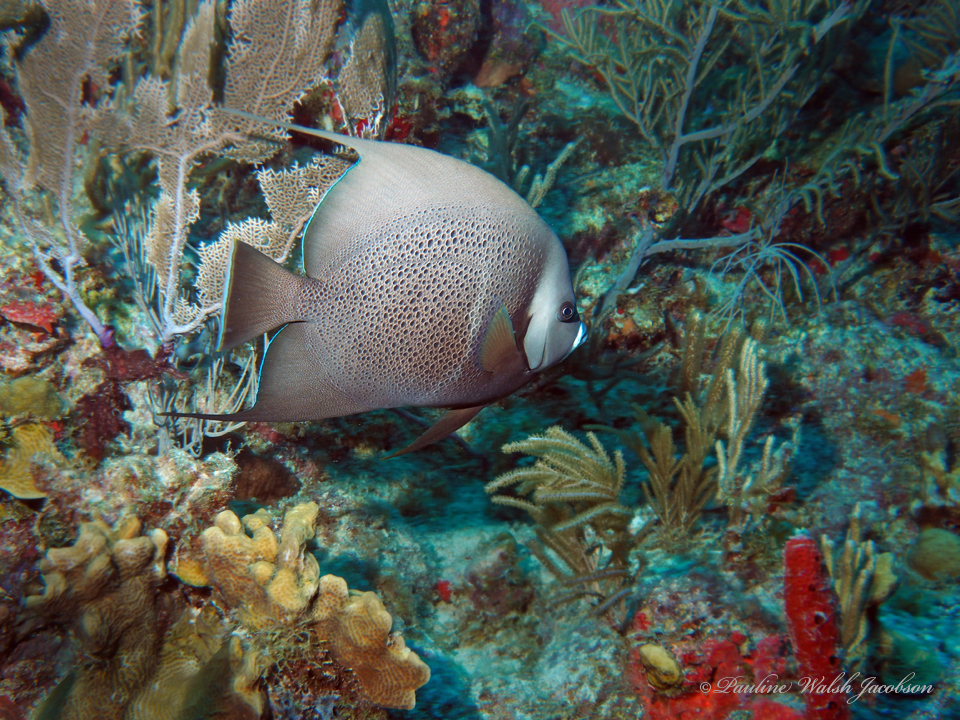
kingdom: Animalia
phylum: Chordata
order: Perciformes
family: Pomacanthidae
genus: Pomacanthus
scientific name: Pomacanthus arcuatus
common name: Gray angelfish
